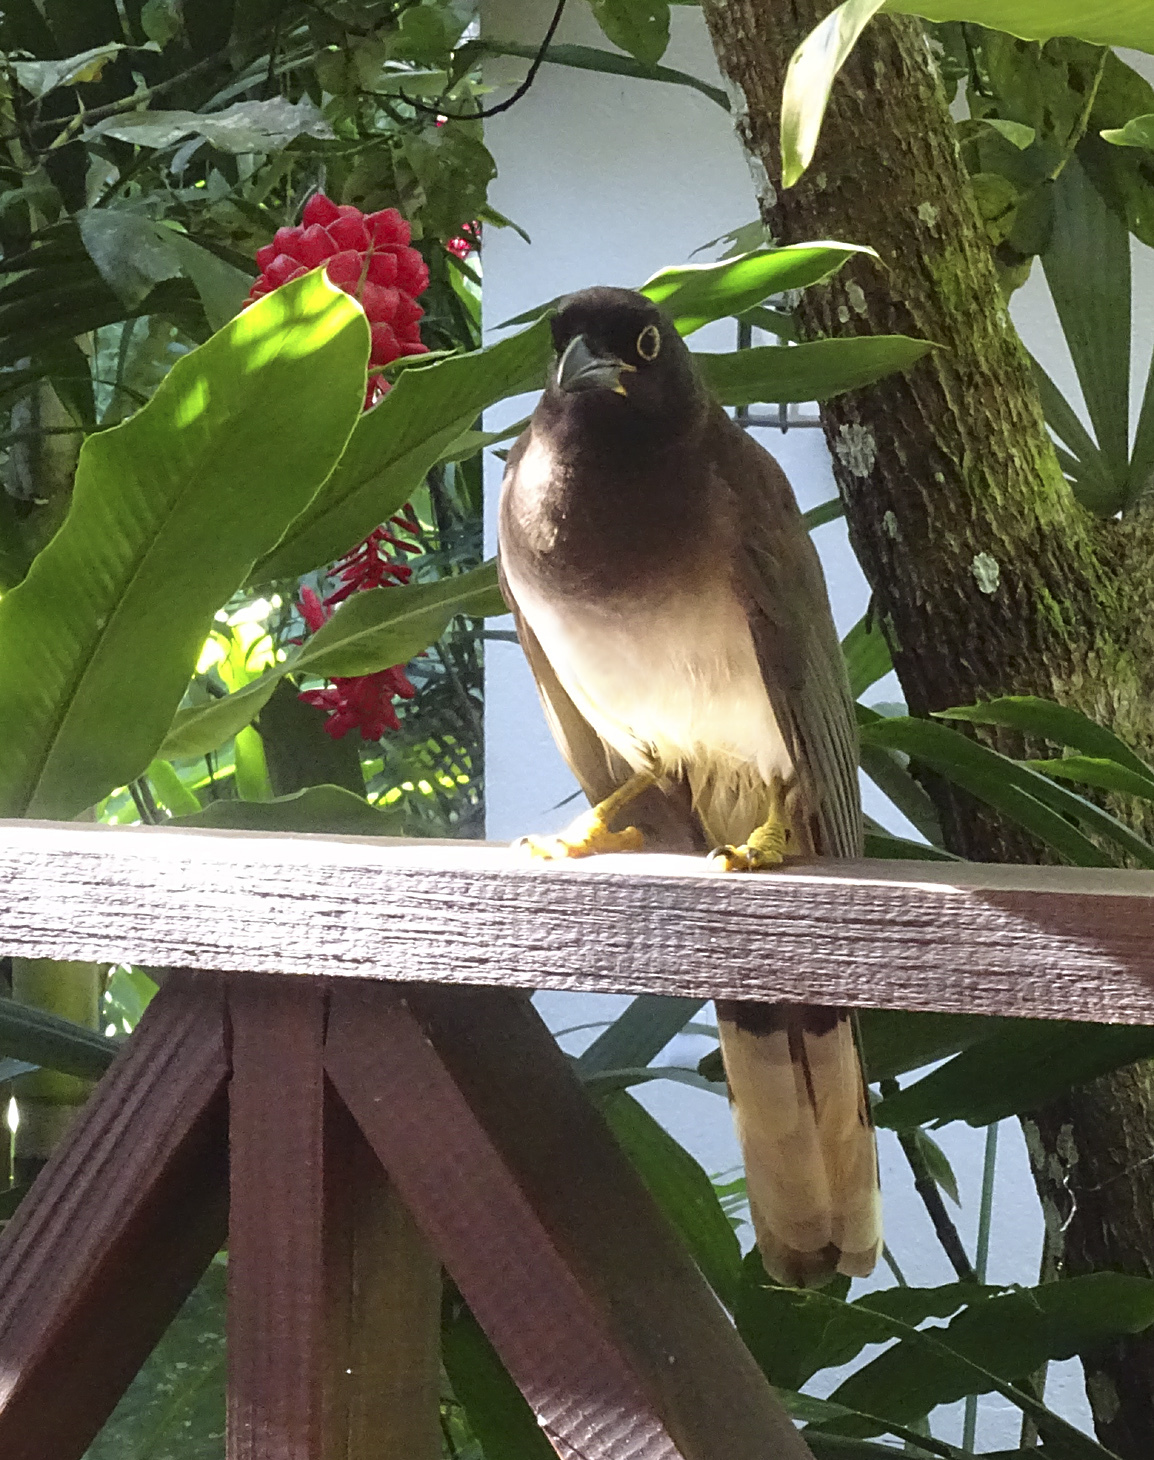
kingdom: Animalia
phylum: Chordata
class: Aves
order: Passeriformes
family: Corvidae
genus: Psilorhinus
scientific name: Psilorhinus morio
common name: Brown jay
